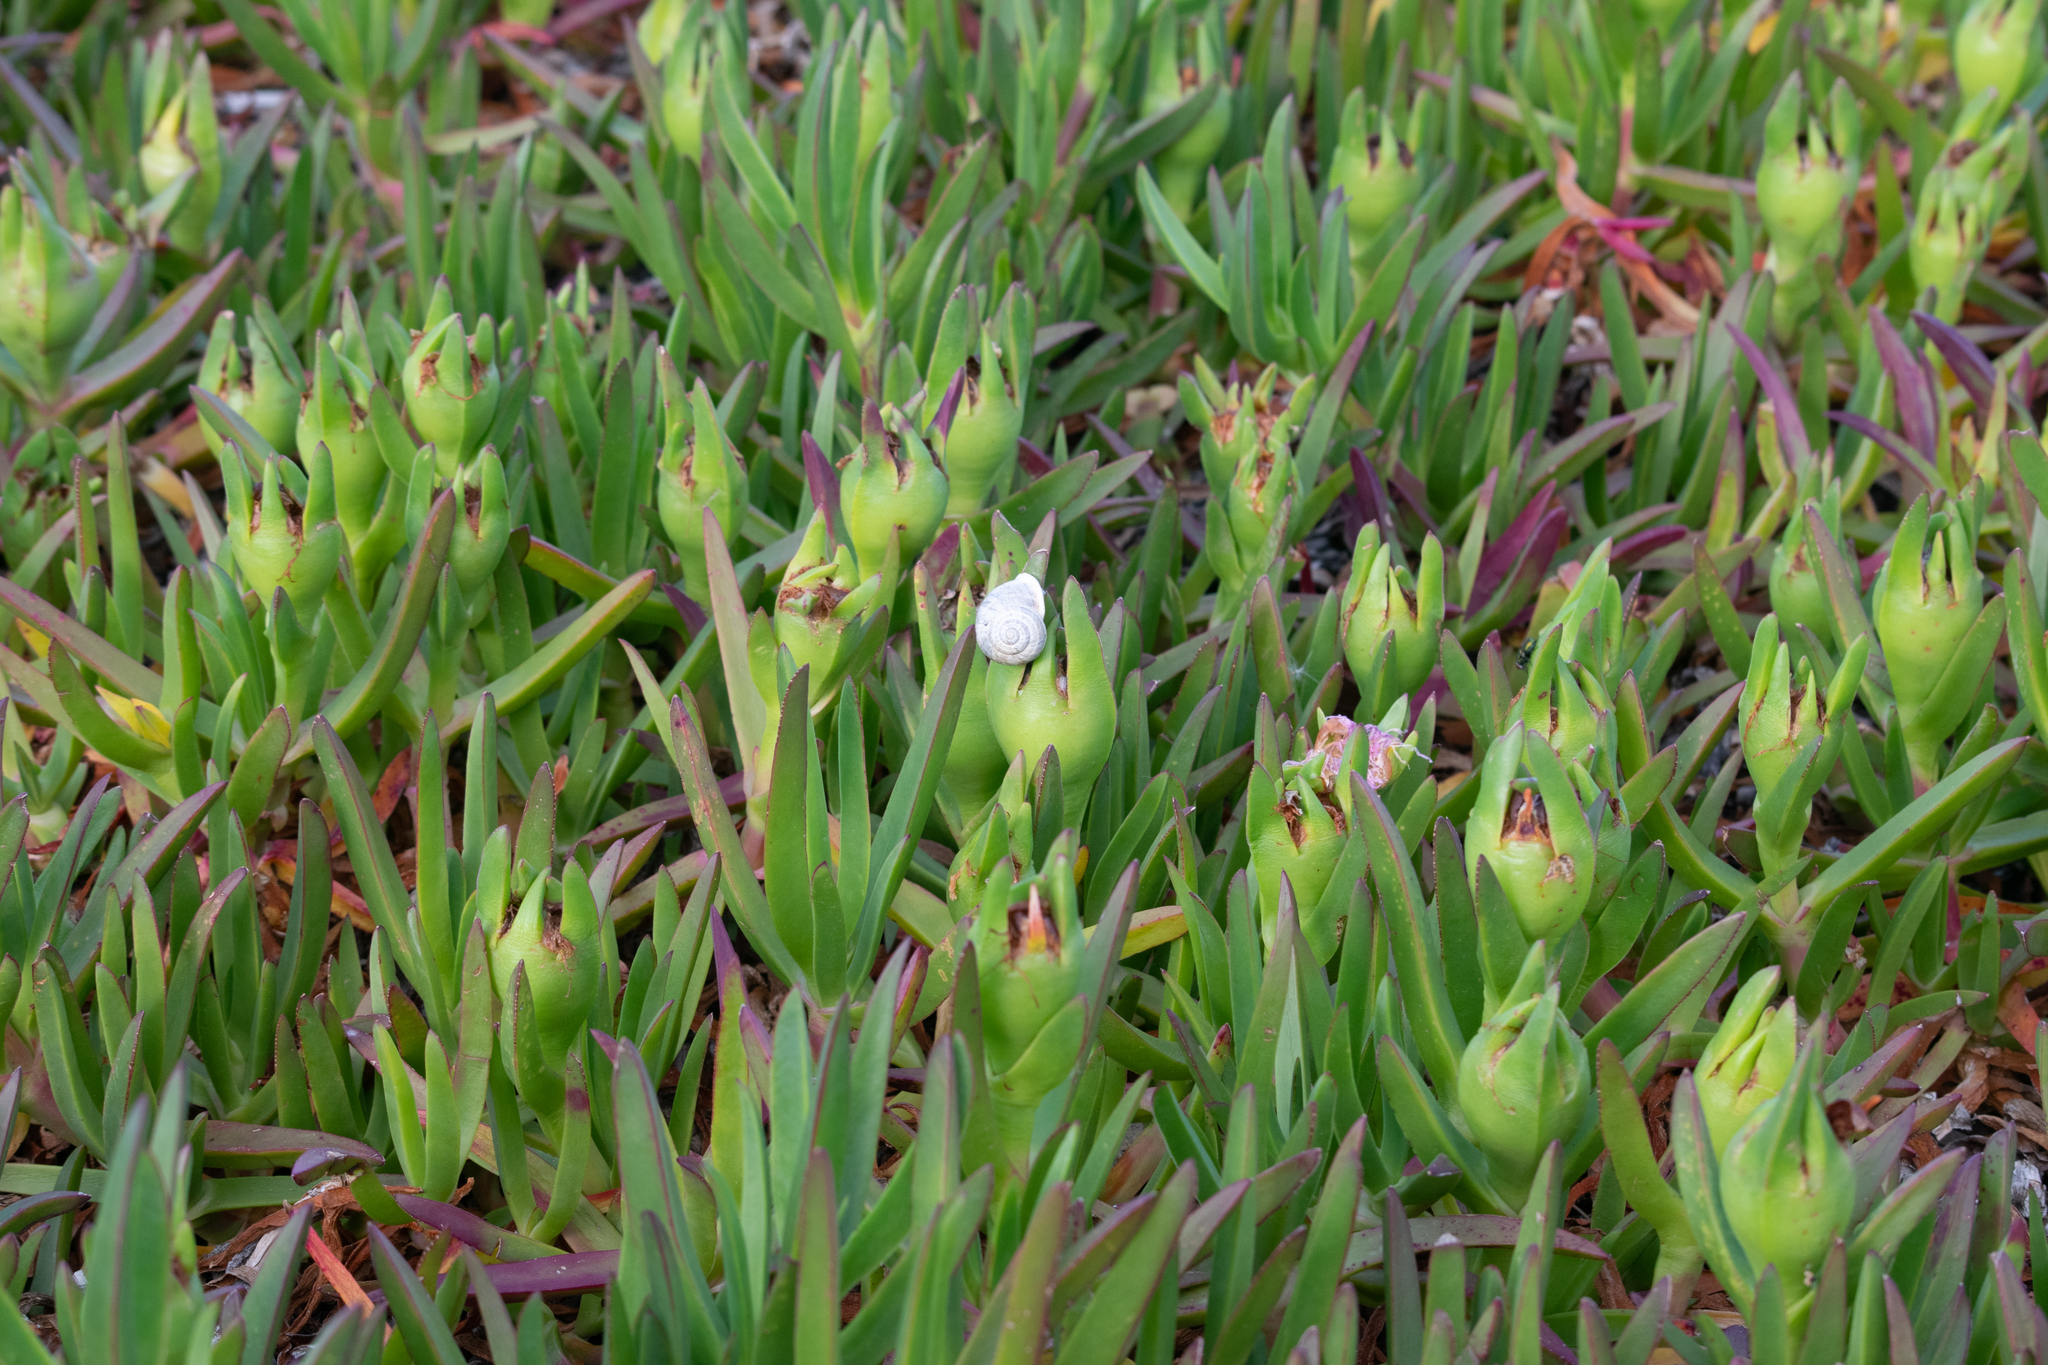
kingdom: Animalia
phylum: Mollusca
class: Gastropoda
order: Stylommatophora
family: Helicidae
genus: Eobania
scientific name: Eobania vermiculata
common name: Chocolateband snail
